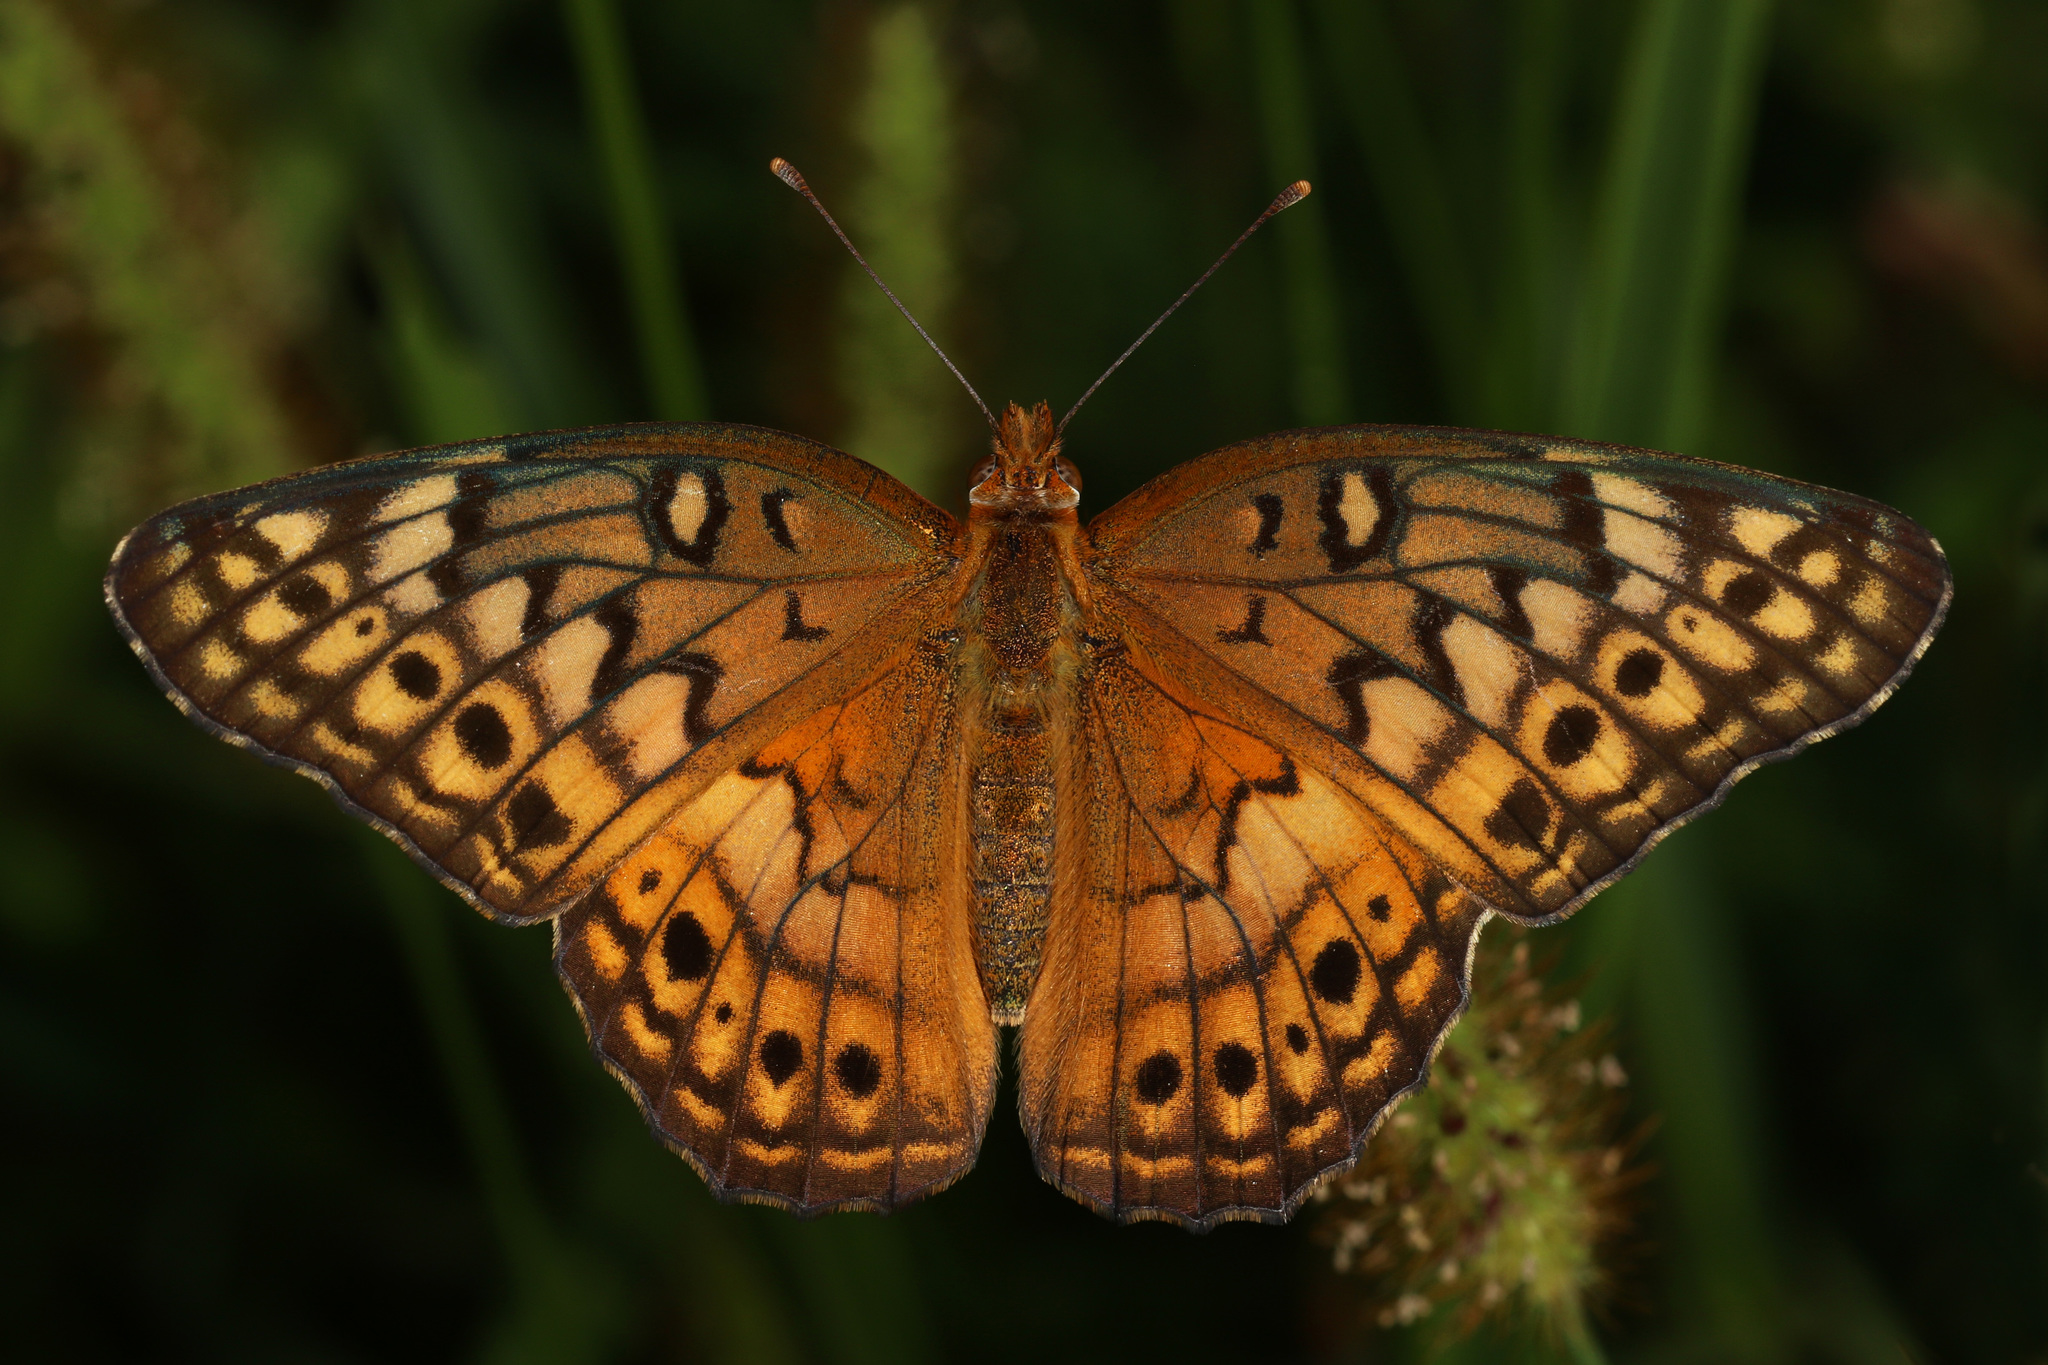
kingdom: Animalia
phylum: Arthropoda
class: Insecta
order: Lepidoptera
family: Nymphalidae
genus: Euptoieta
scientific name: Euptoieta claudia
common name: Variegated fritillary
